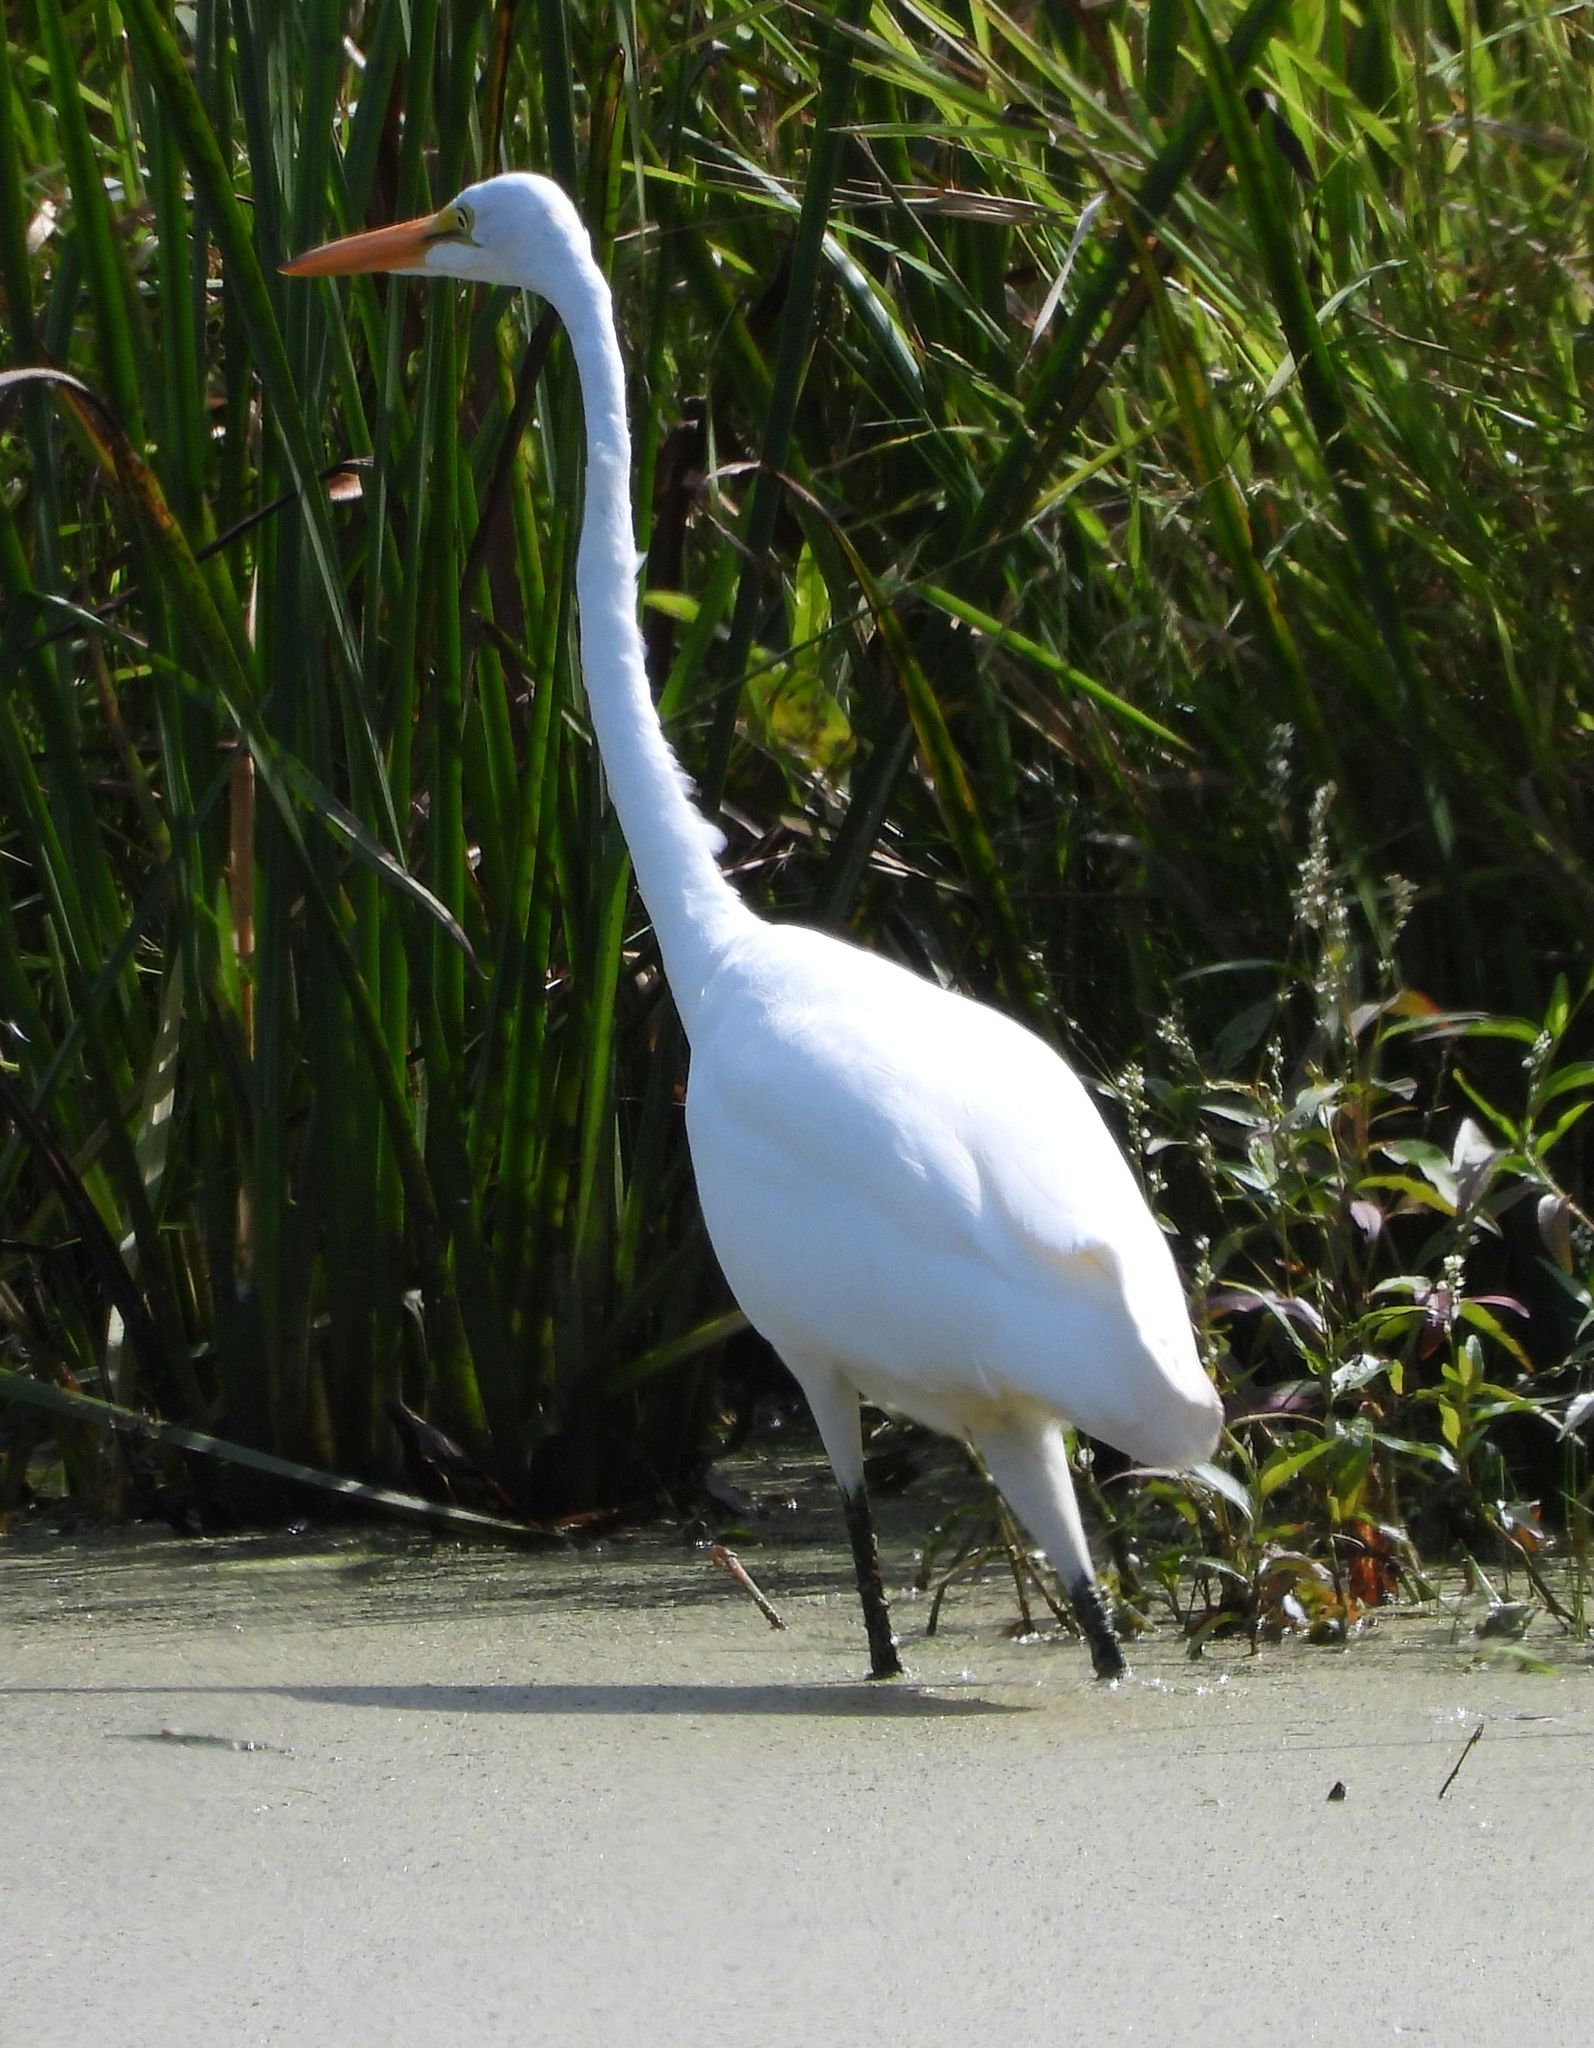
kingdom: Animalia
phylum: Chordata
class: Aves
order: Pelecaniformes
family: Ardeidae
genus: Ardea
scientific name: Ardea alba
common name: Great egret
